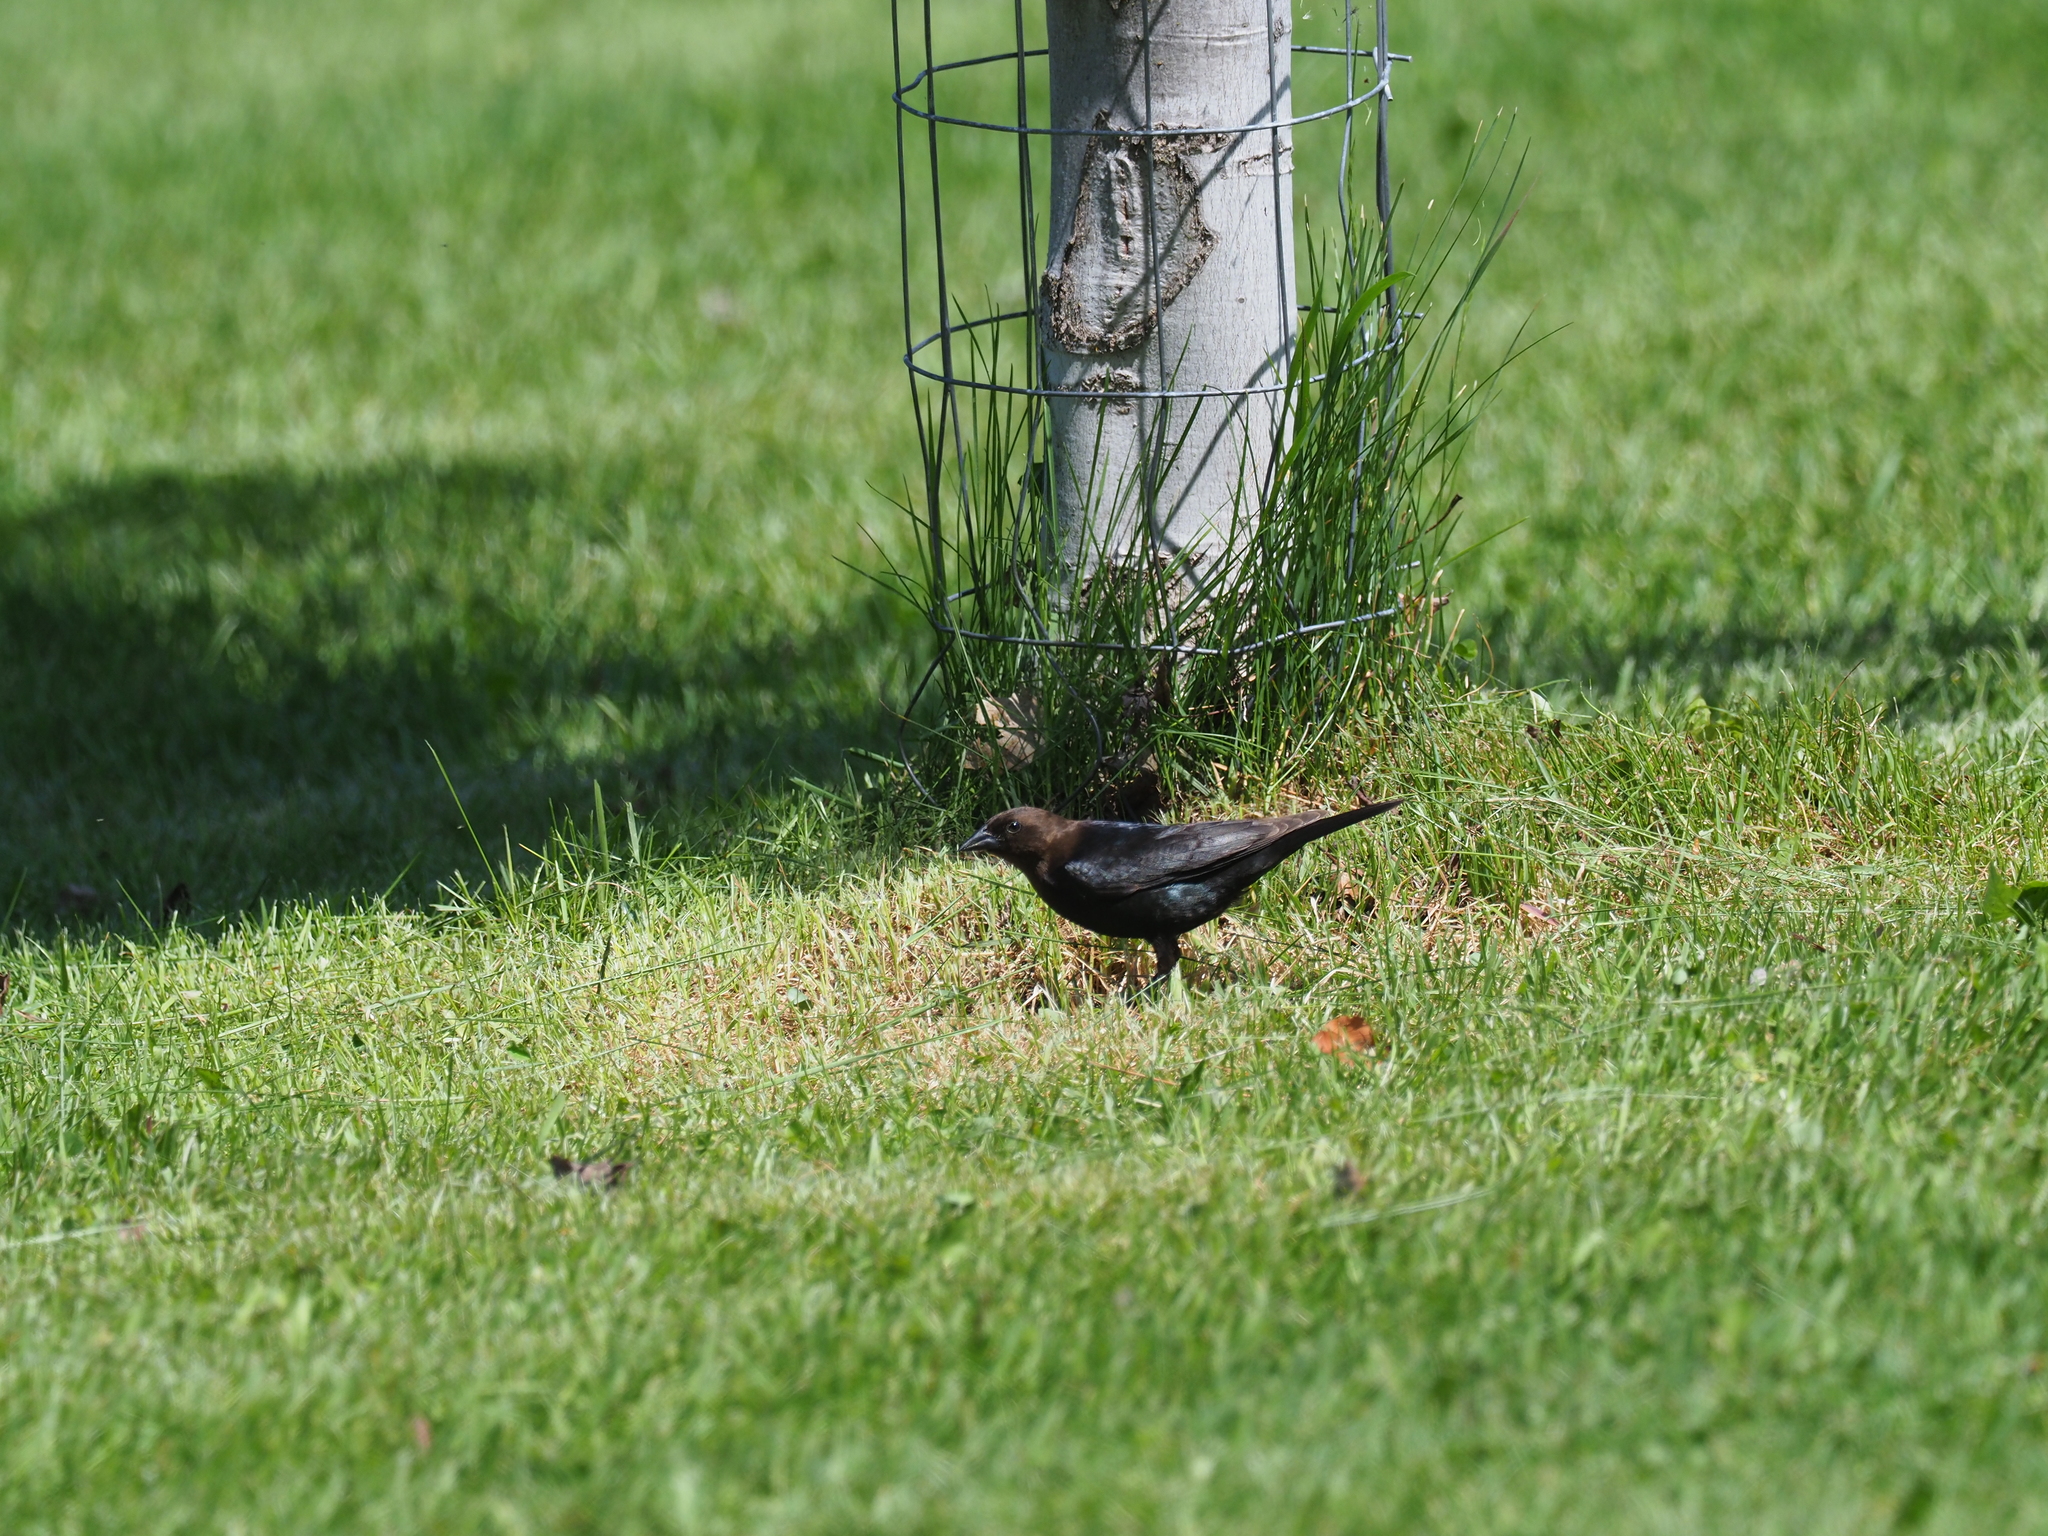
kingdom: Animalia
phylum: Chordata
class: Aves
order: Passeriformes
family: Icteridae
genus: Molothrus
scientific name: Molothrus ater
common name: Brown-headed cowbird
